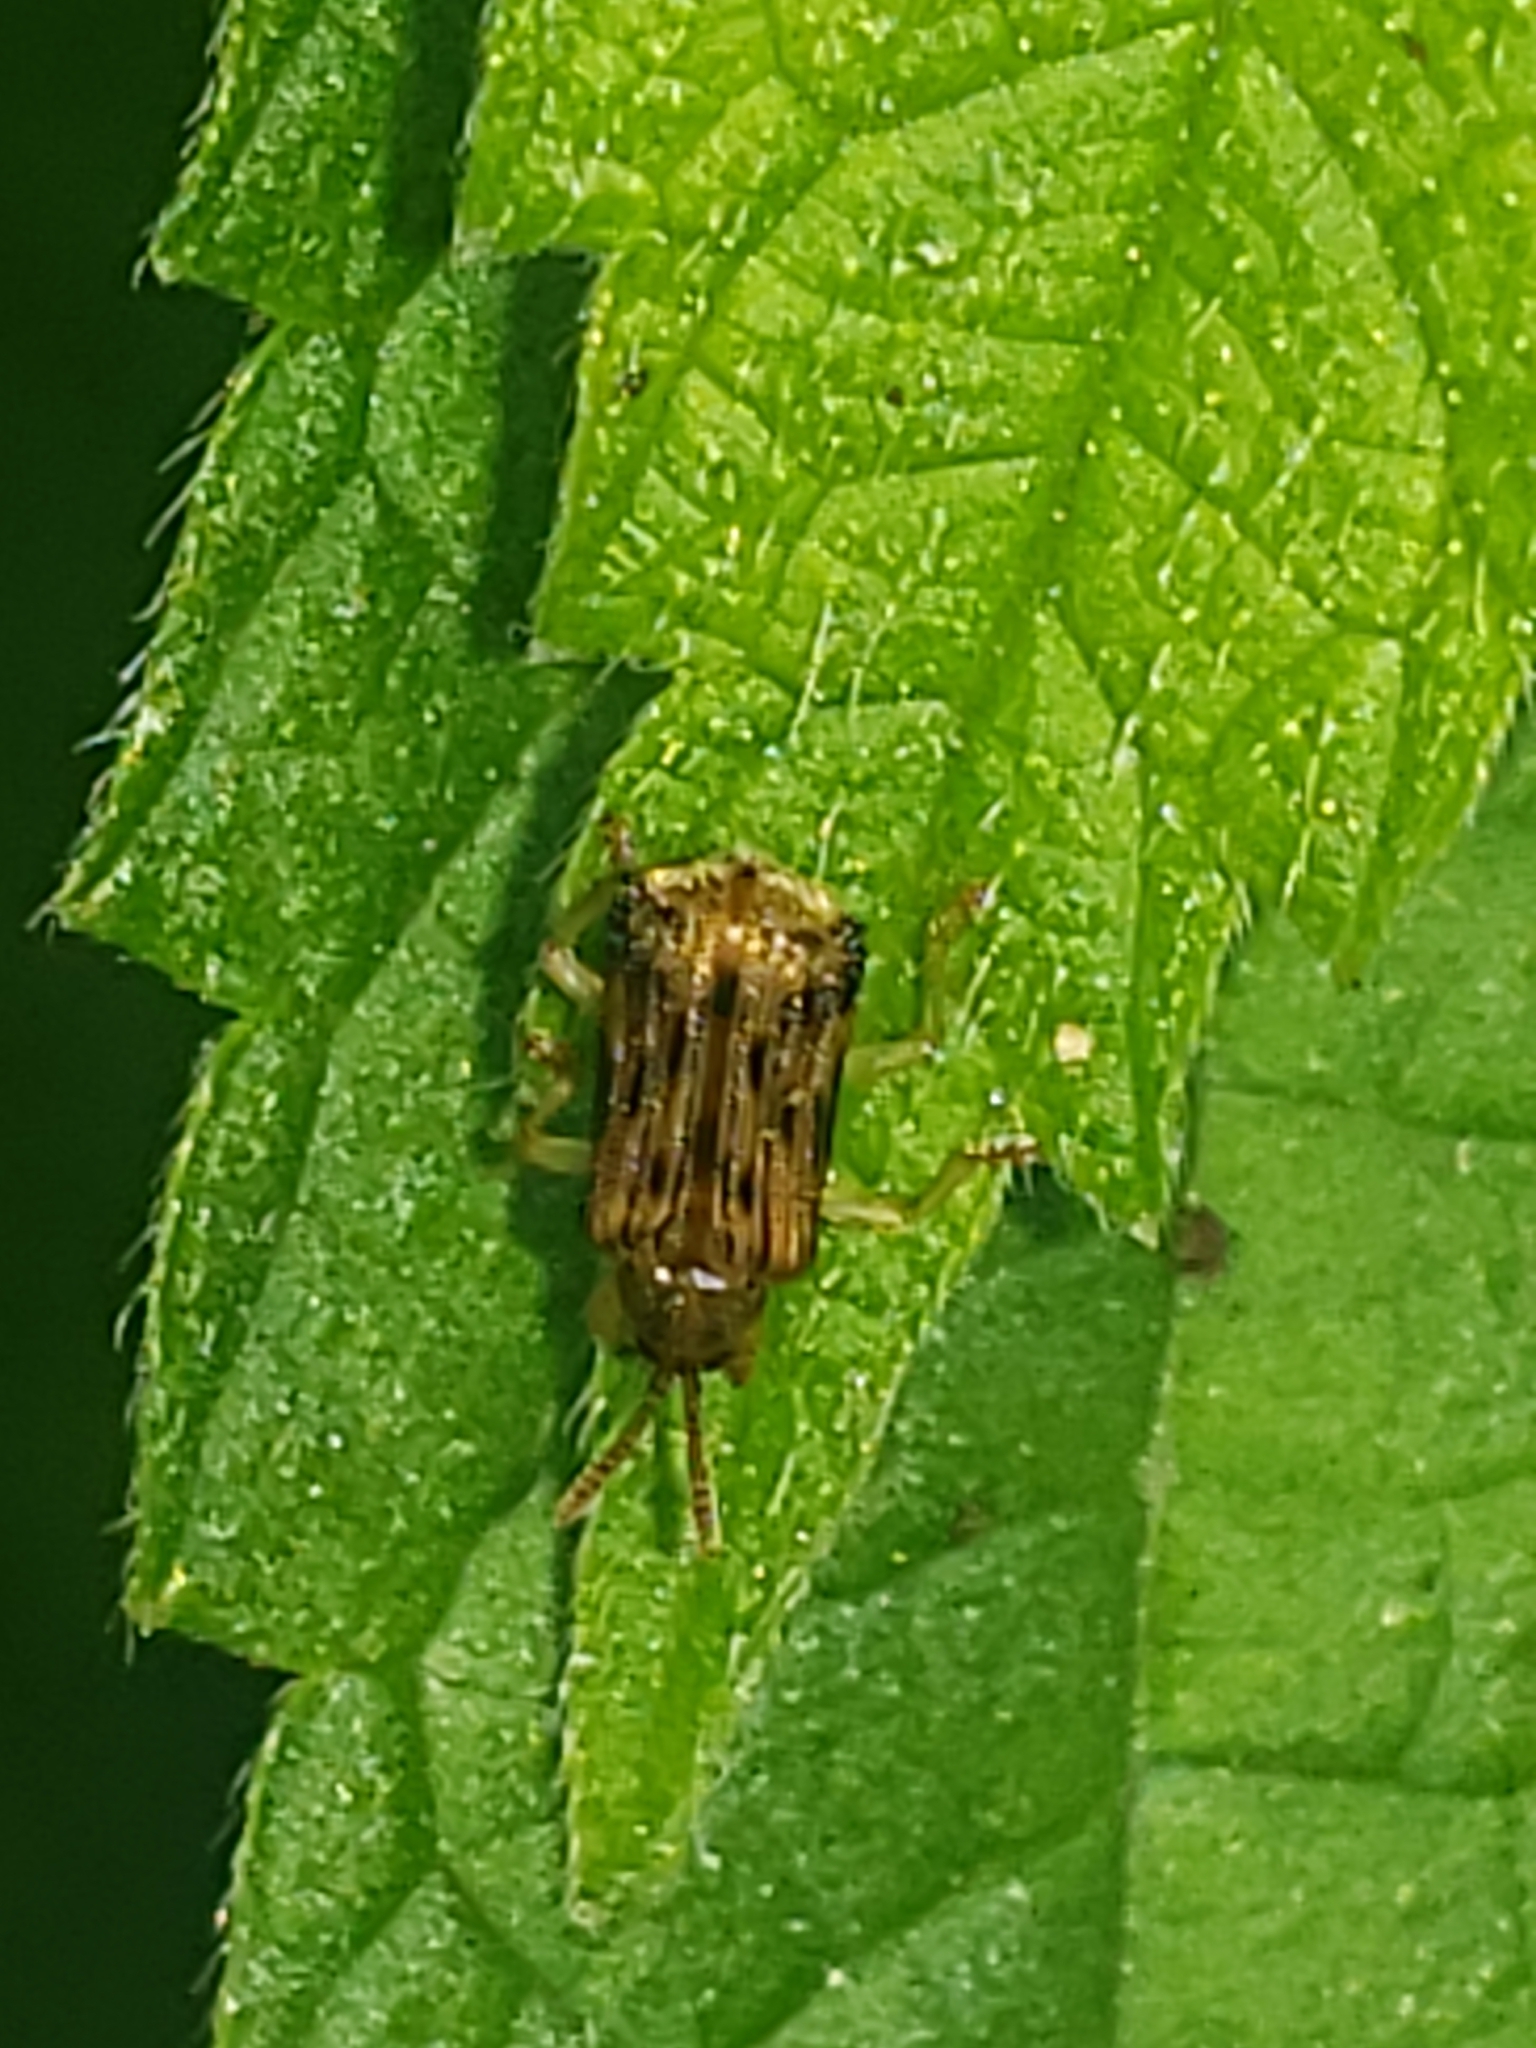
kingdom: Animalia
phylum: Arthropoda
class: Insecta
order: Coleoptera
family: Chrysomelidae
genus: Sumitrosis
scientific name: Sumitrosis inaequalis
